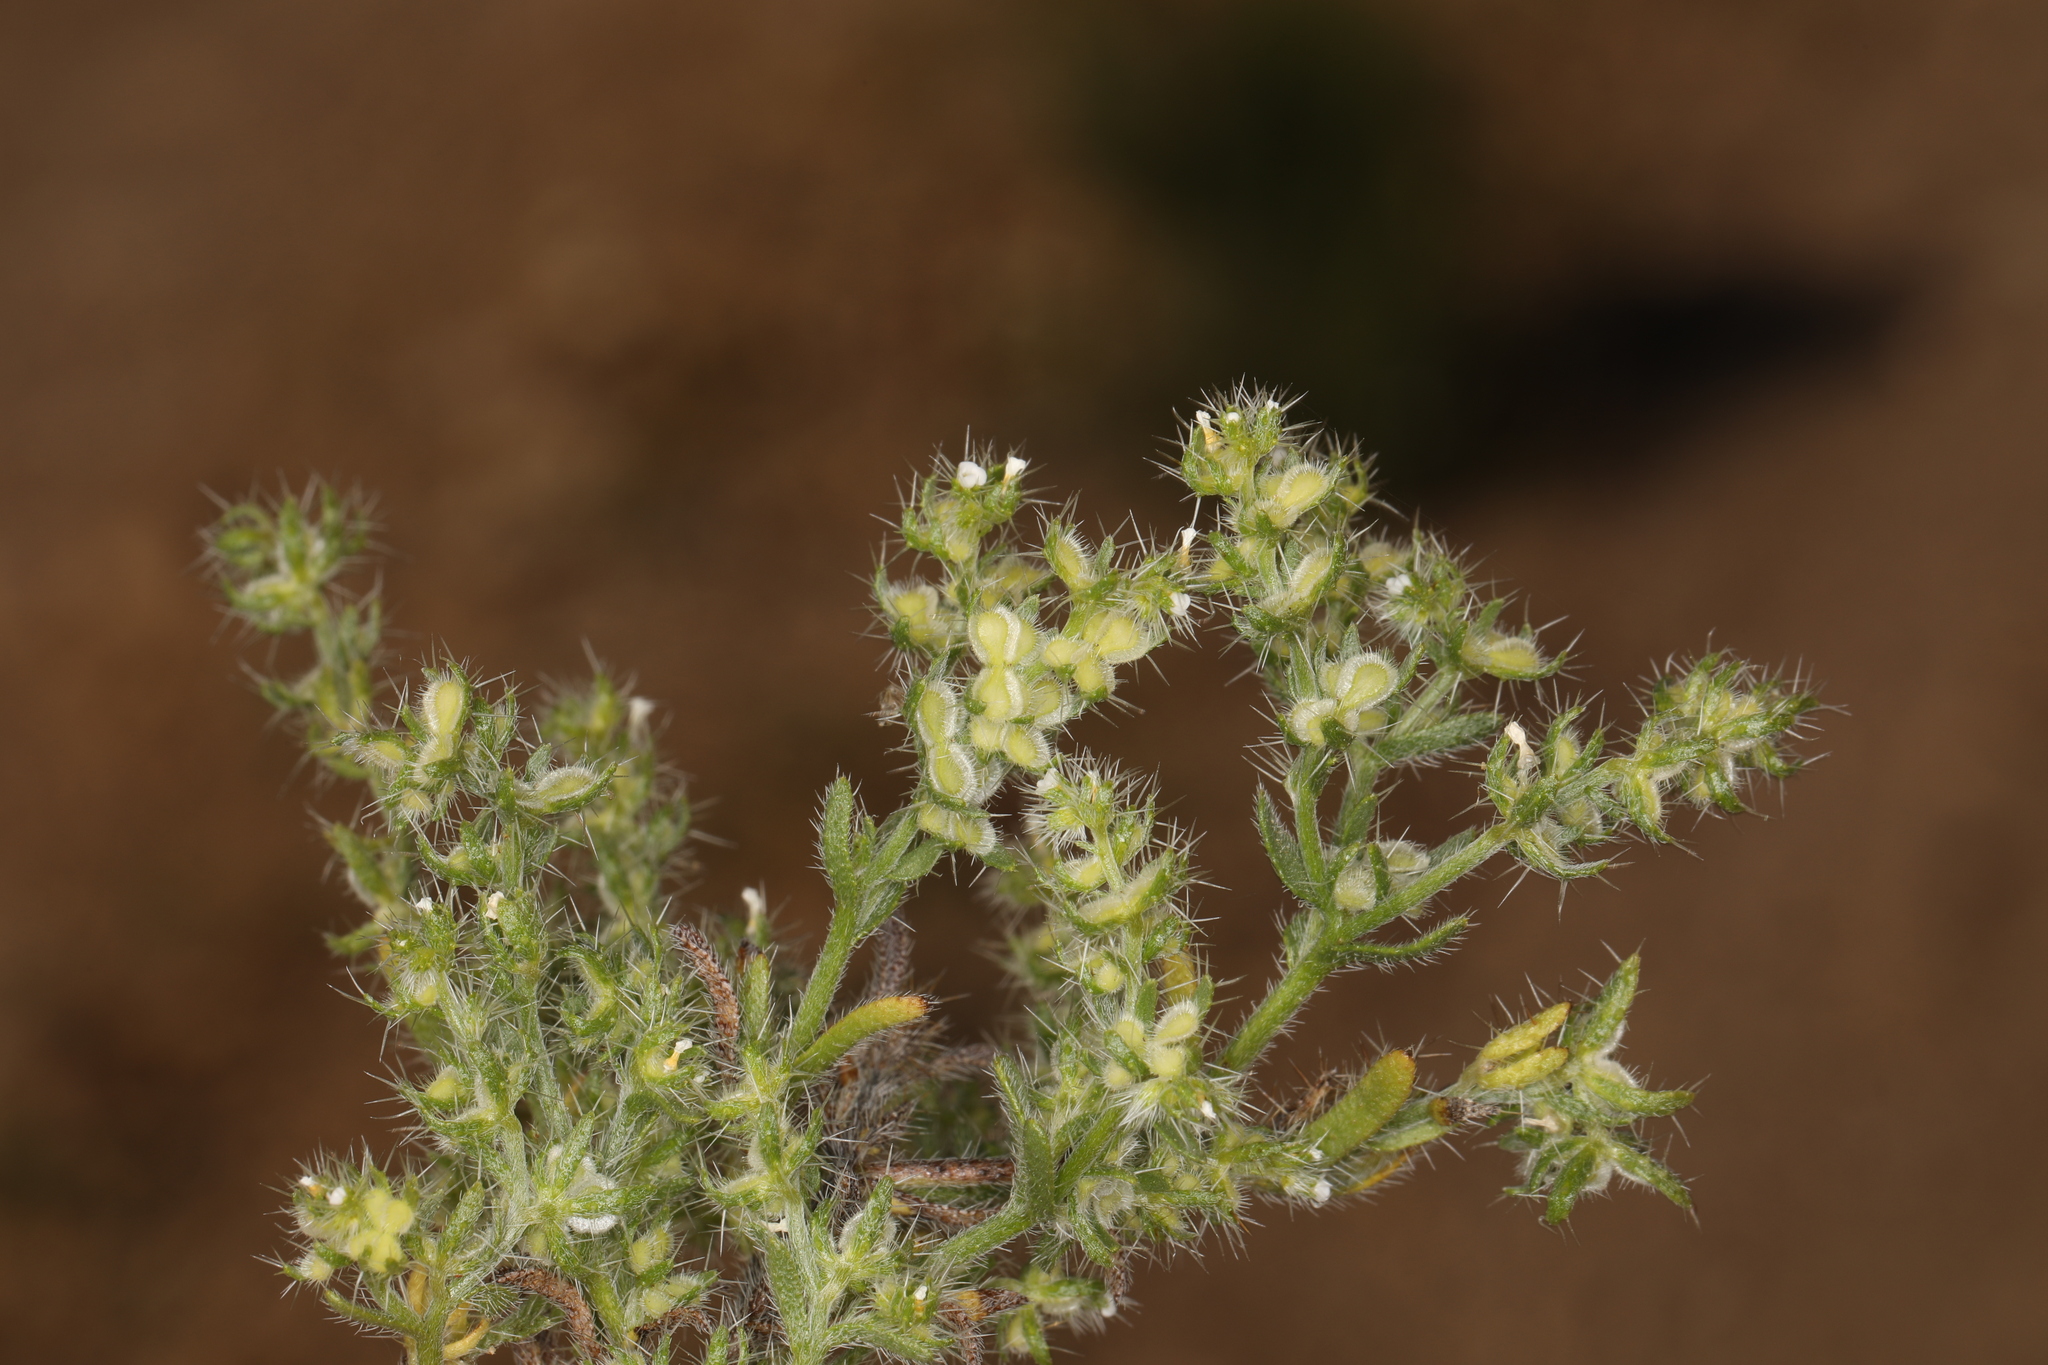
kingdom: Plantae
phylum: Tracheophyta
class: Magnoliopsida
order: Boraginales
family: Boraginaceae
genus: Pectocarya
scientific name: Pectocarya setosa
